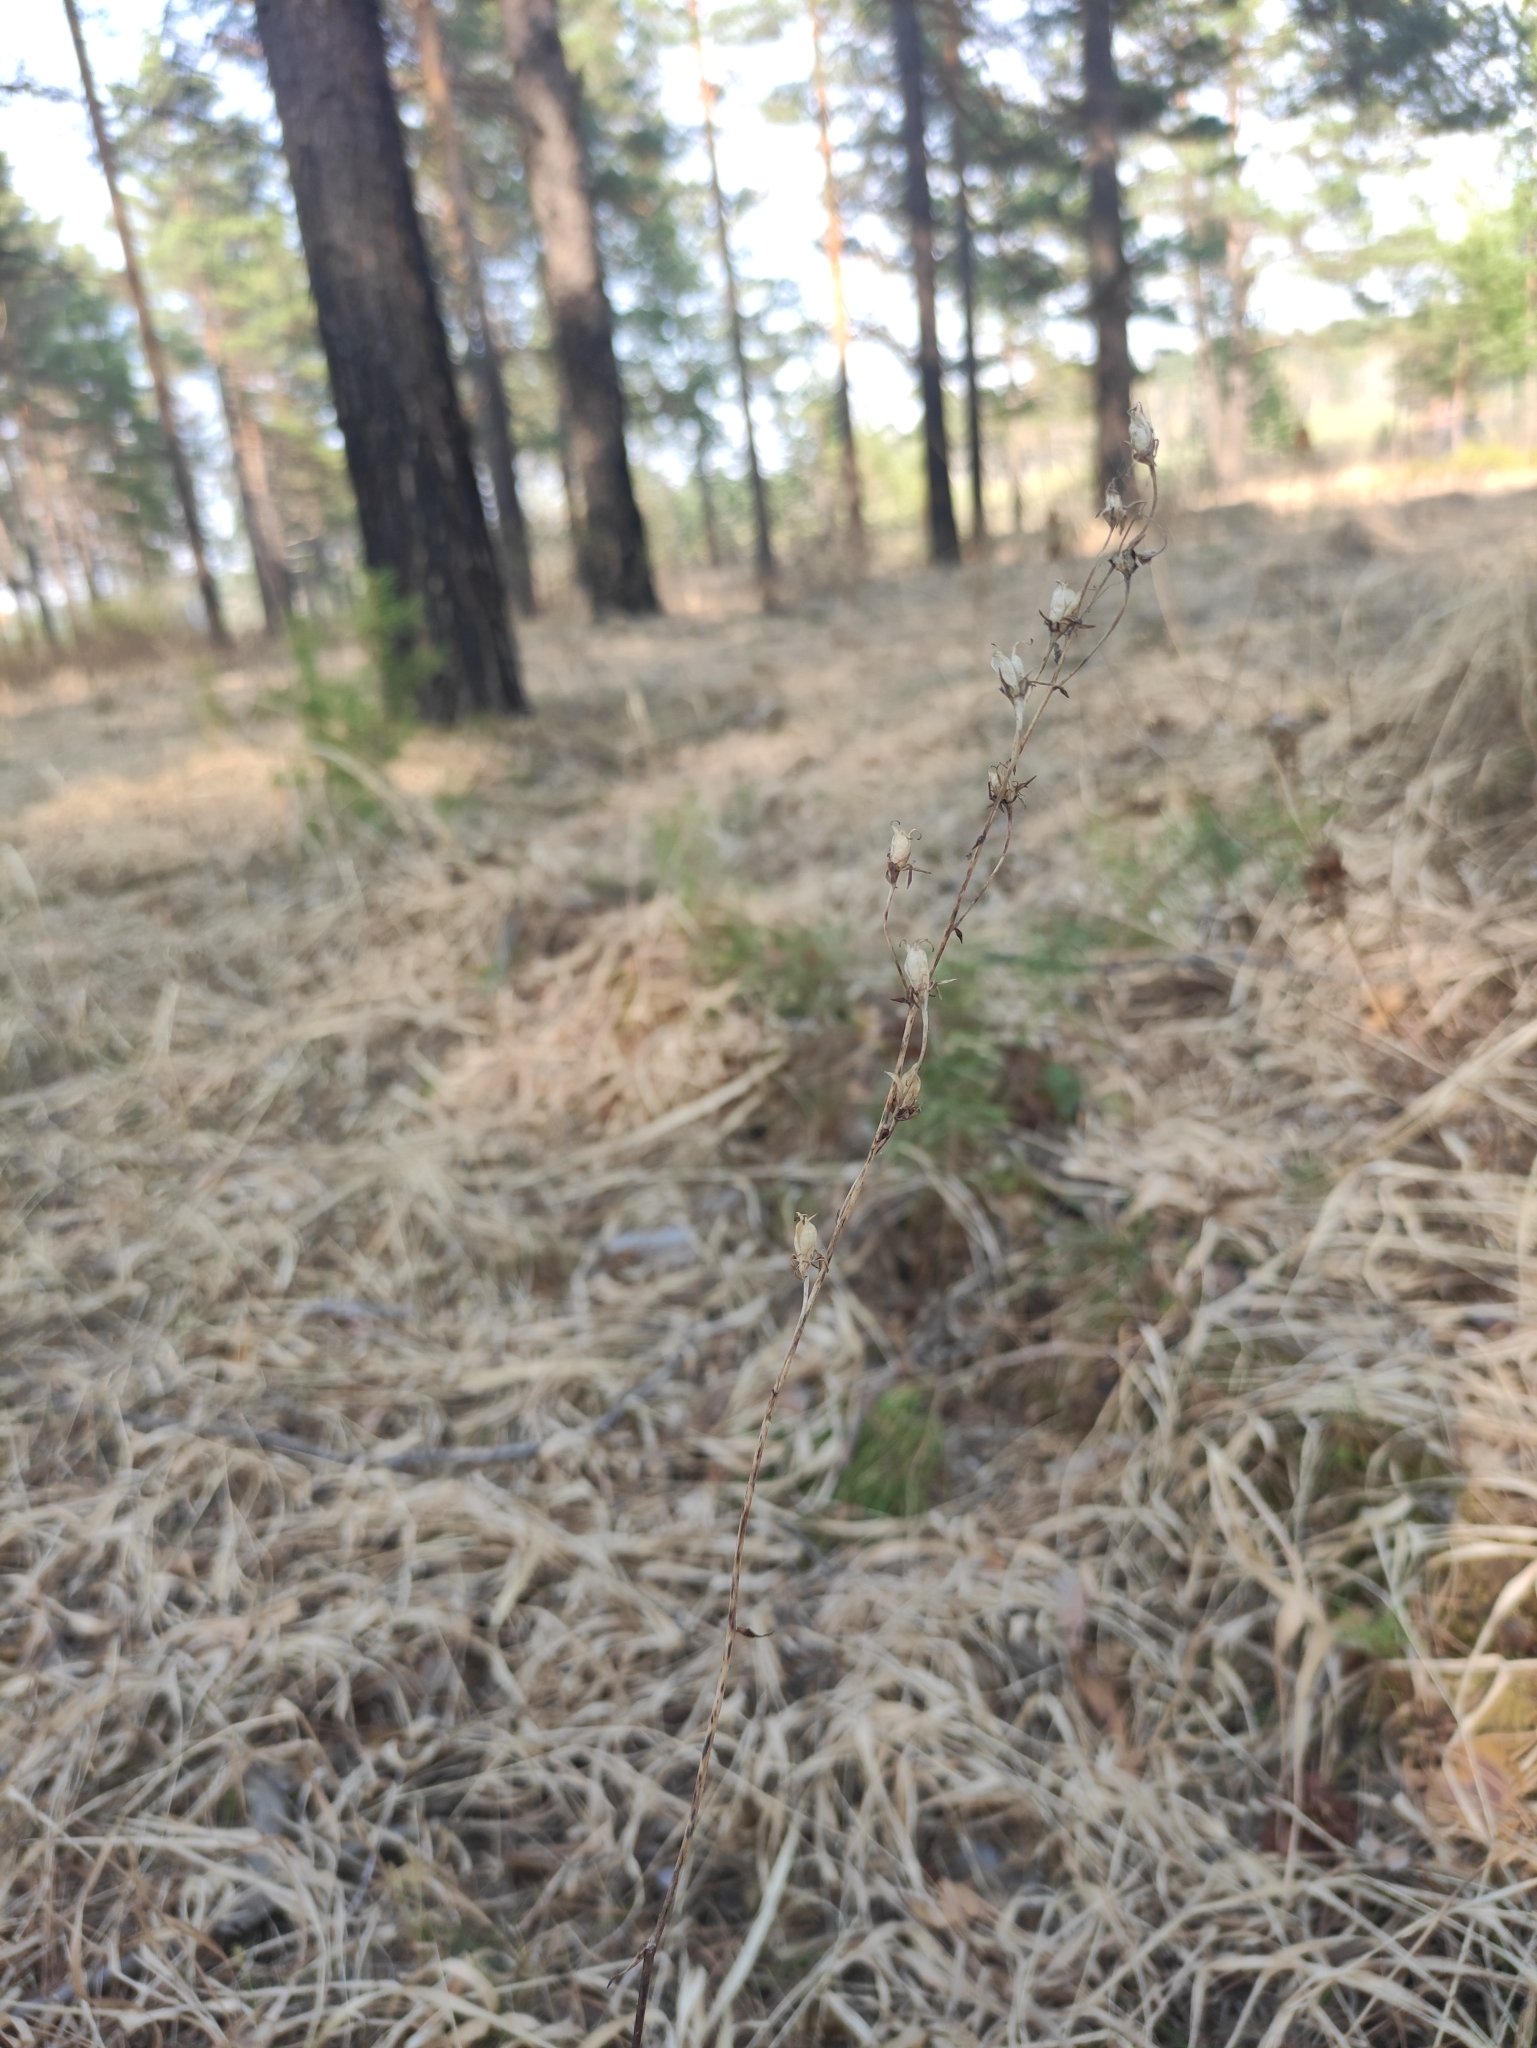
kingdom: Plantae
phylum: Tracheophyta
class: Liliopsida
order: Liliales
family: Melanthiaceae
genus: Anticlea
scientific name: Anticlea sibirica
